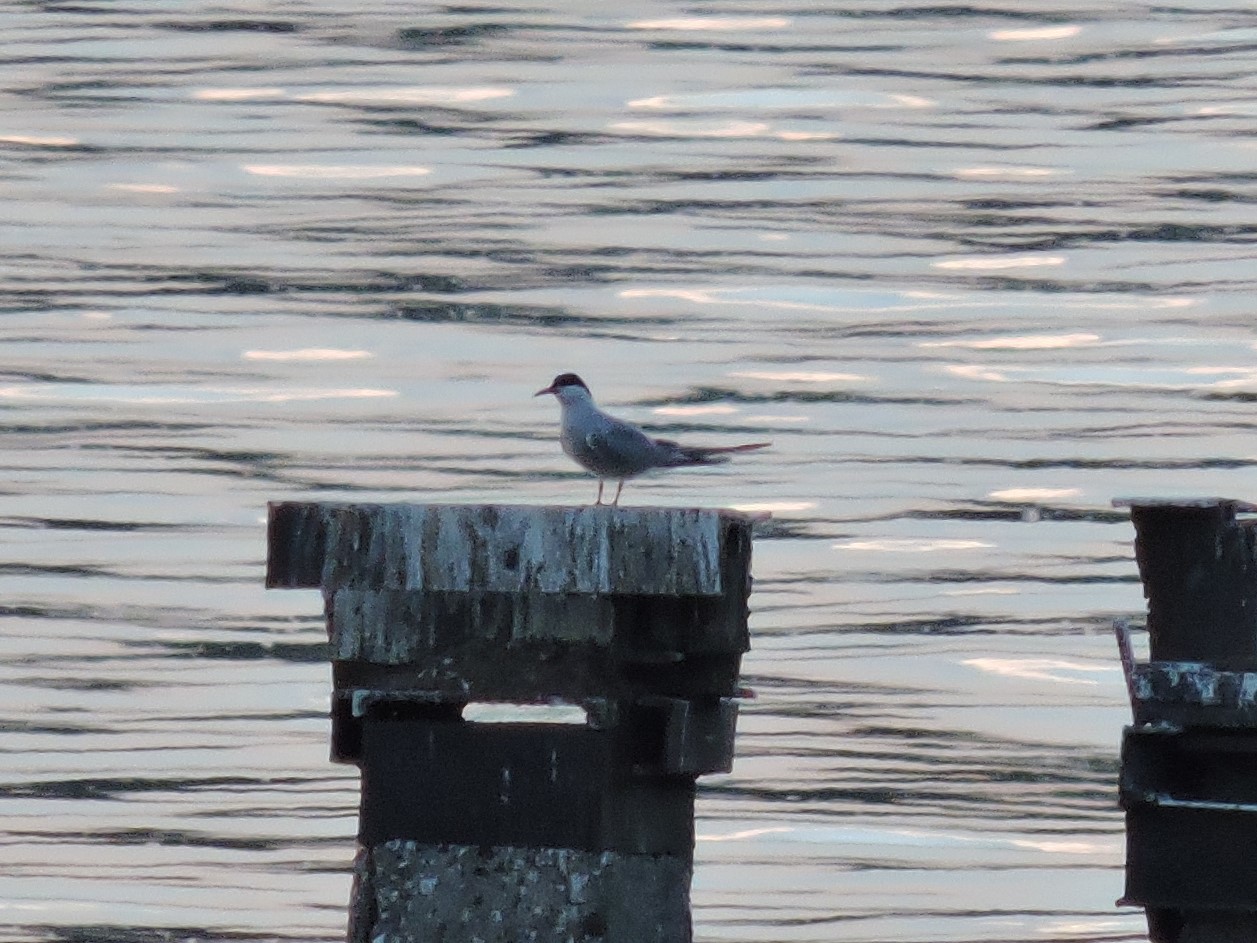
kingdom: Animalia
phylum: Chordata
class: Aves
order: Charadriiformes
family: Laridae
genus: Sterna
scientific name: Sterna hirundo
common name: Common tern
